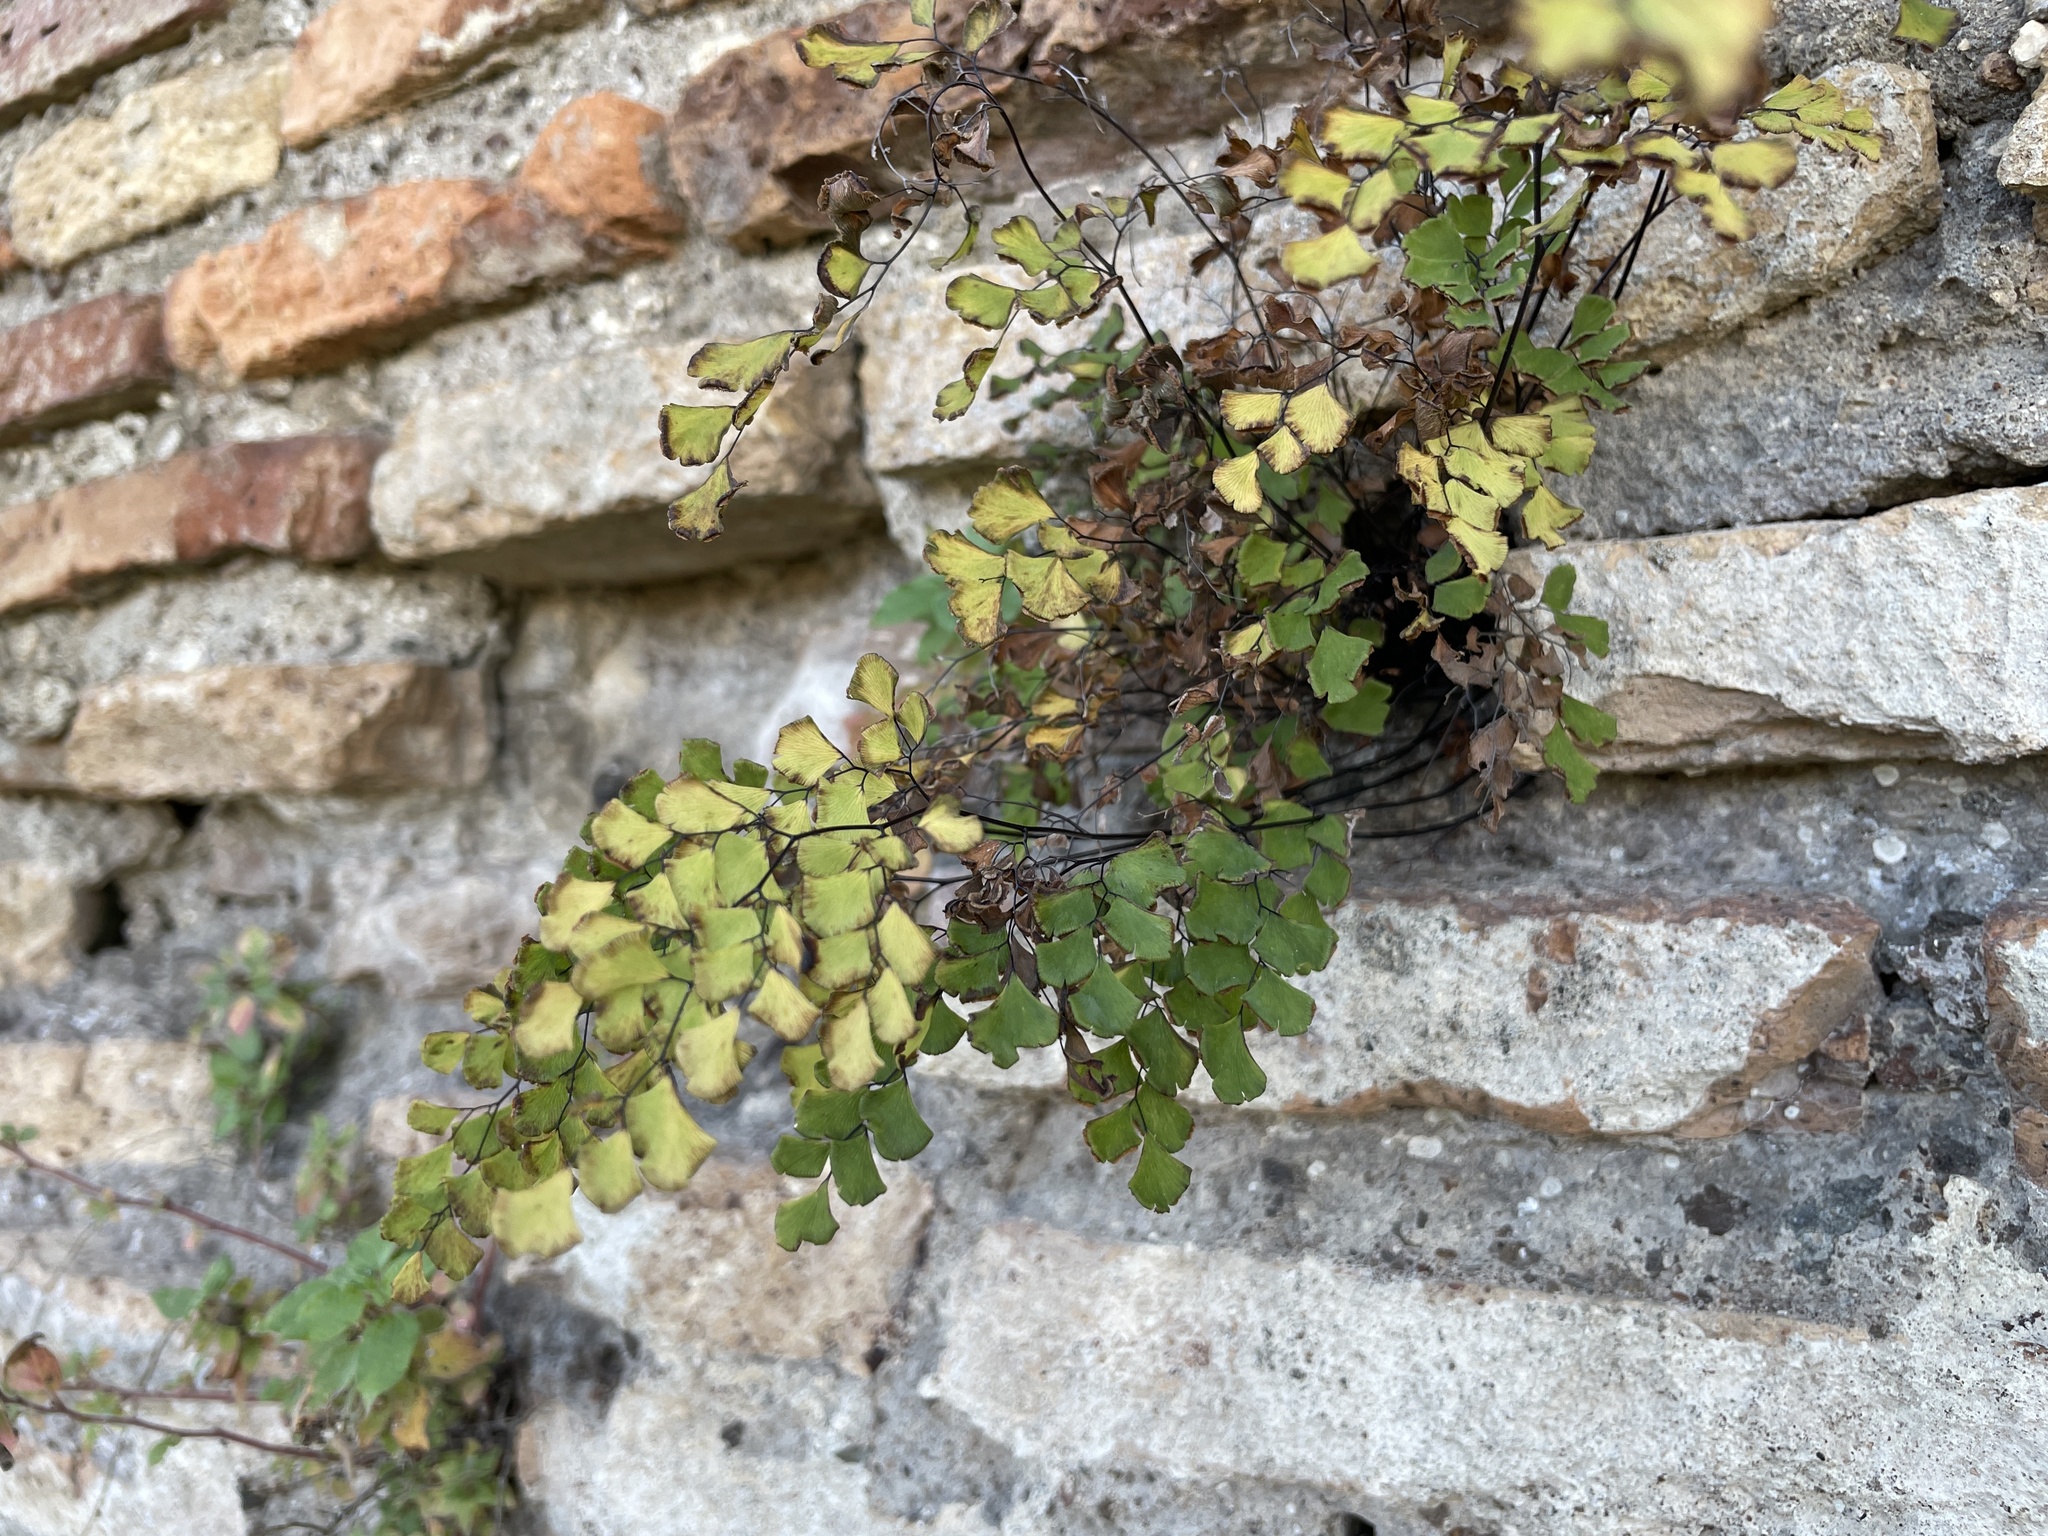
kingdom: Plantae
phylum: Tracheophyta
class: Polypodiopsida
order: Polypodiales
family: Pteridaceae
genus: Adiantum
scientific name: Adiantum capillus-veneris
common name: Maidenhair fern
